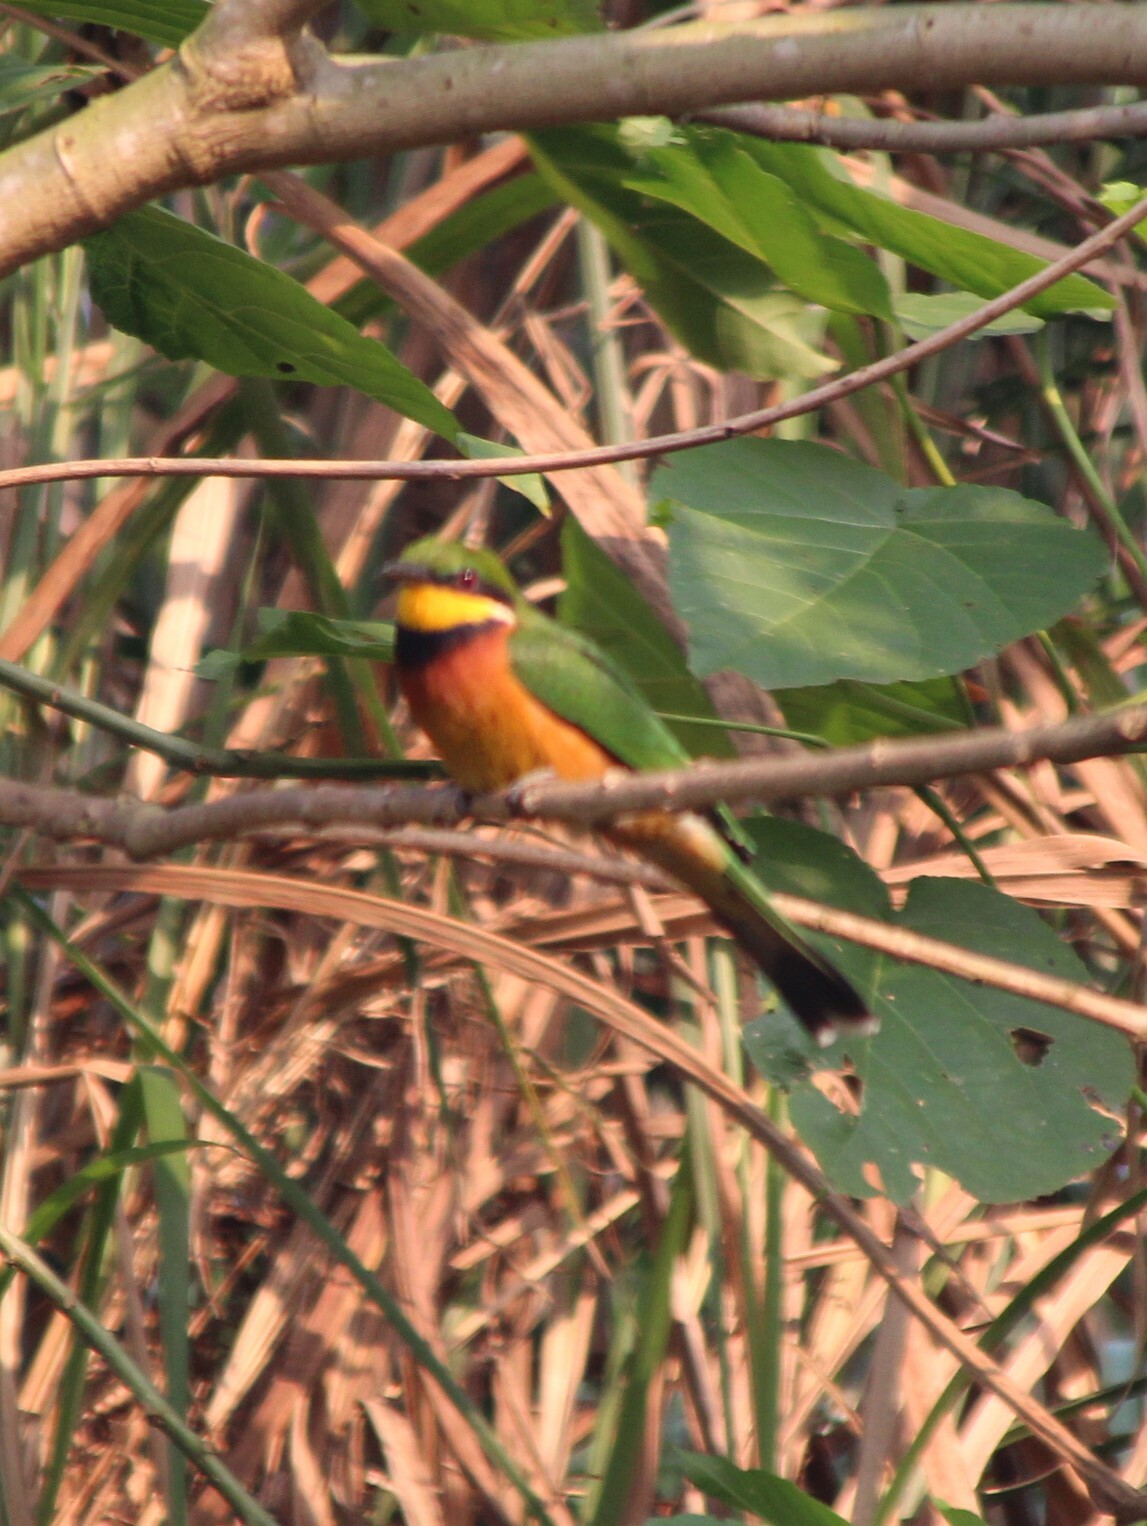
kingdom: Animalia
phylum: Chordata
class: Aves
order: Coraciiformes
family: Meropidae
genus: Merops
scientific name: Merops oreobates
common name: Cinnamon-chested bee-eater
